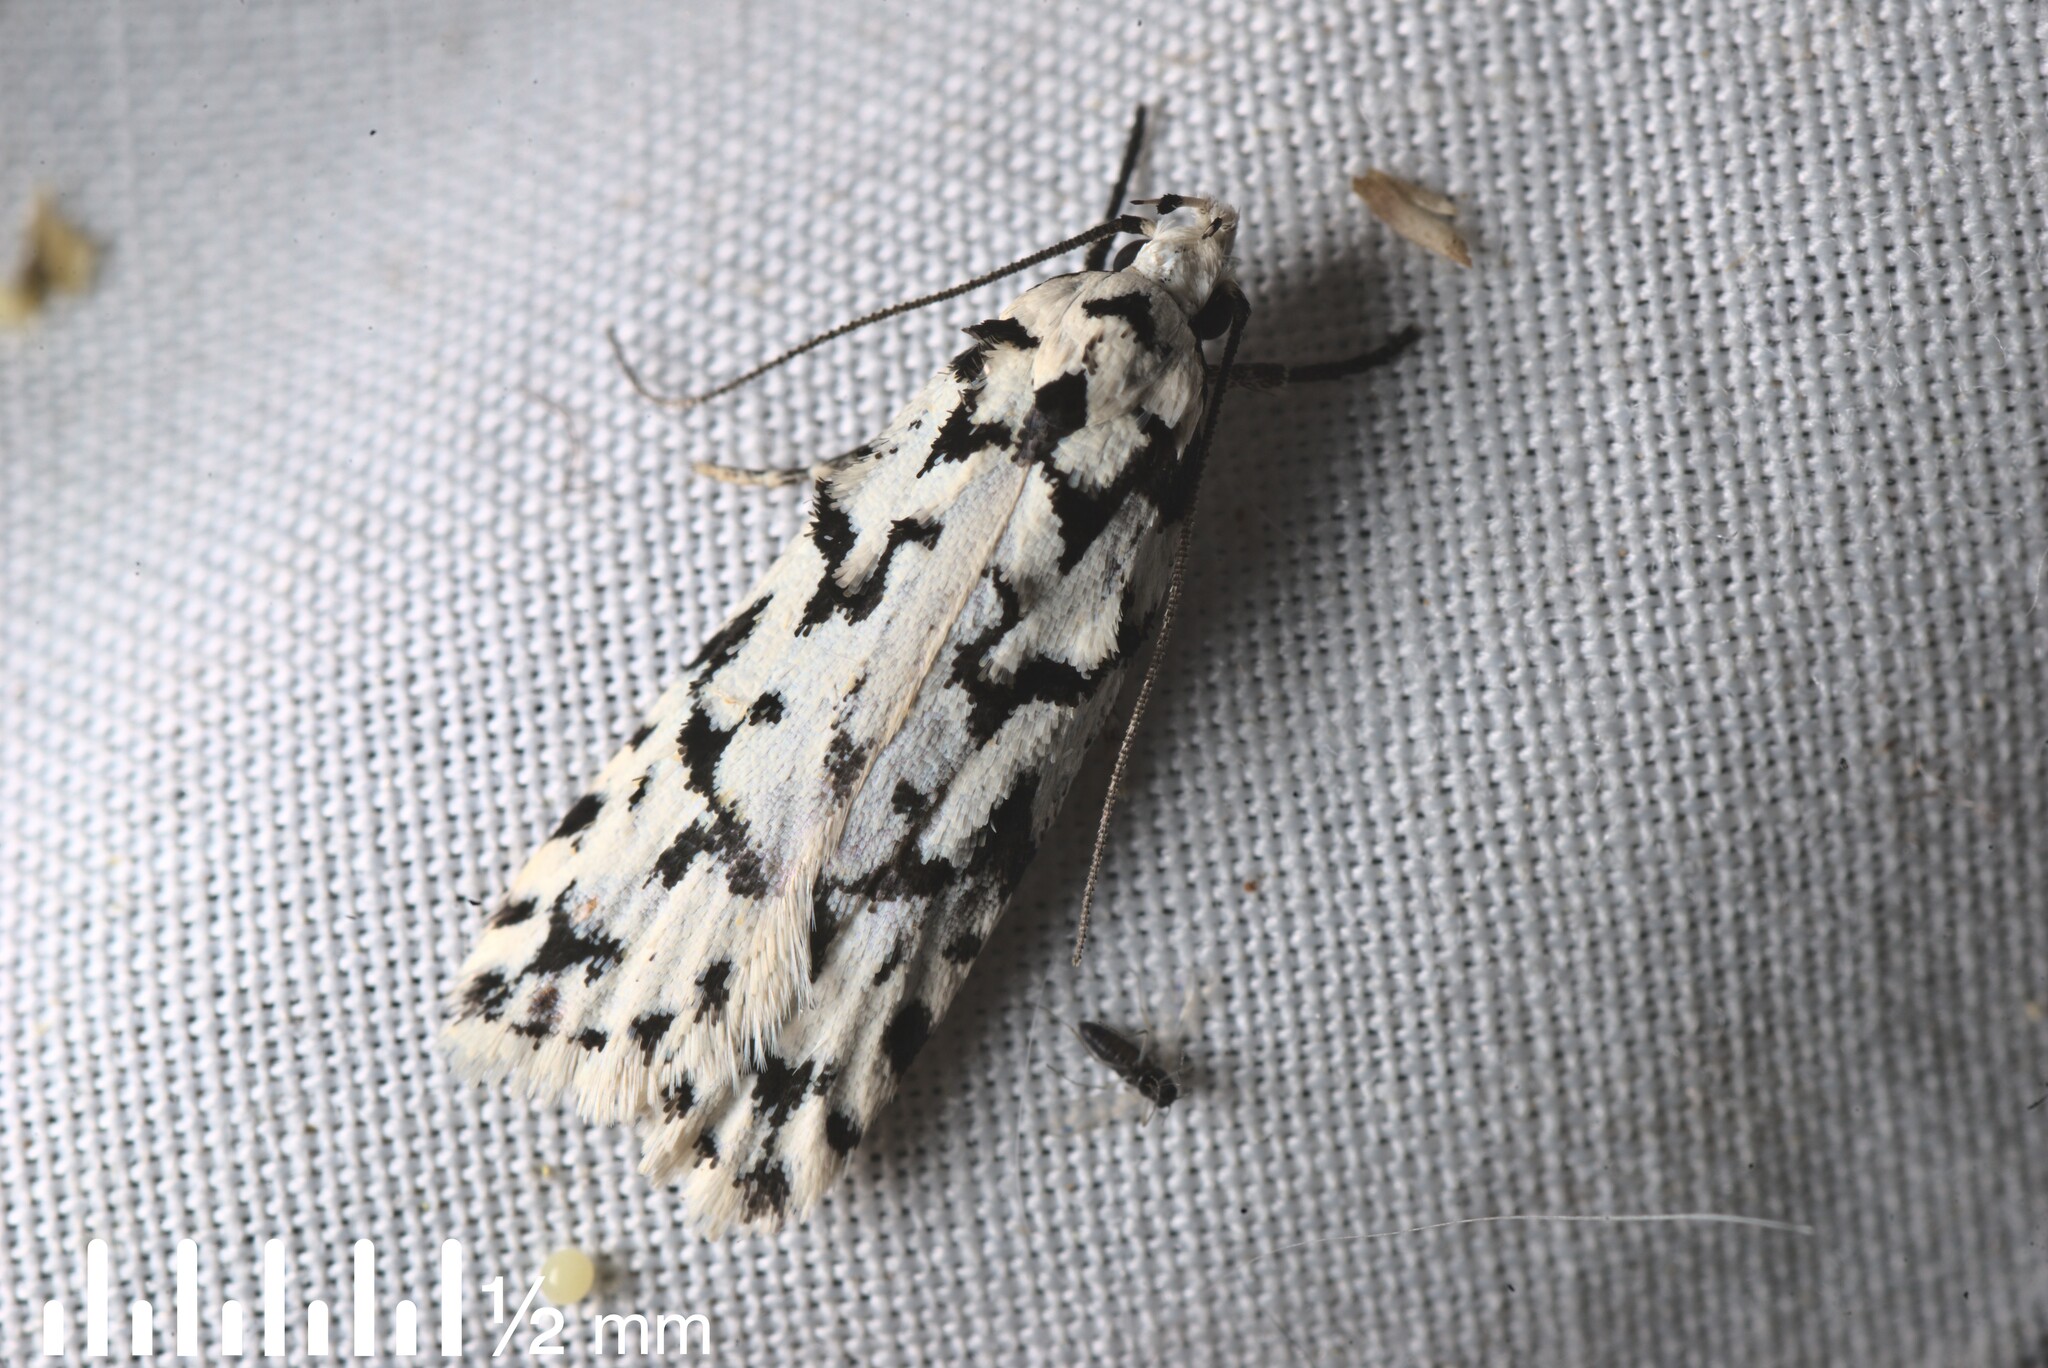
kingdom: Animalia
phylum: Arthropoda
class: Insecta
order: Lepidoptera
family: Oecophoridae
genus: Izatha
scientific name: Izatha katadiktya
